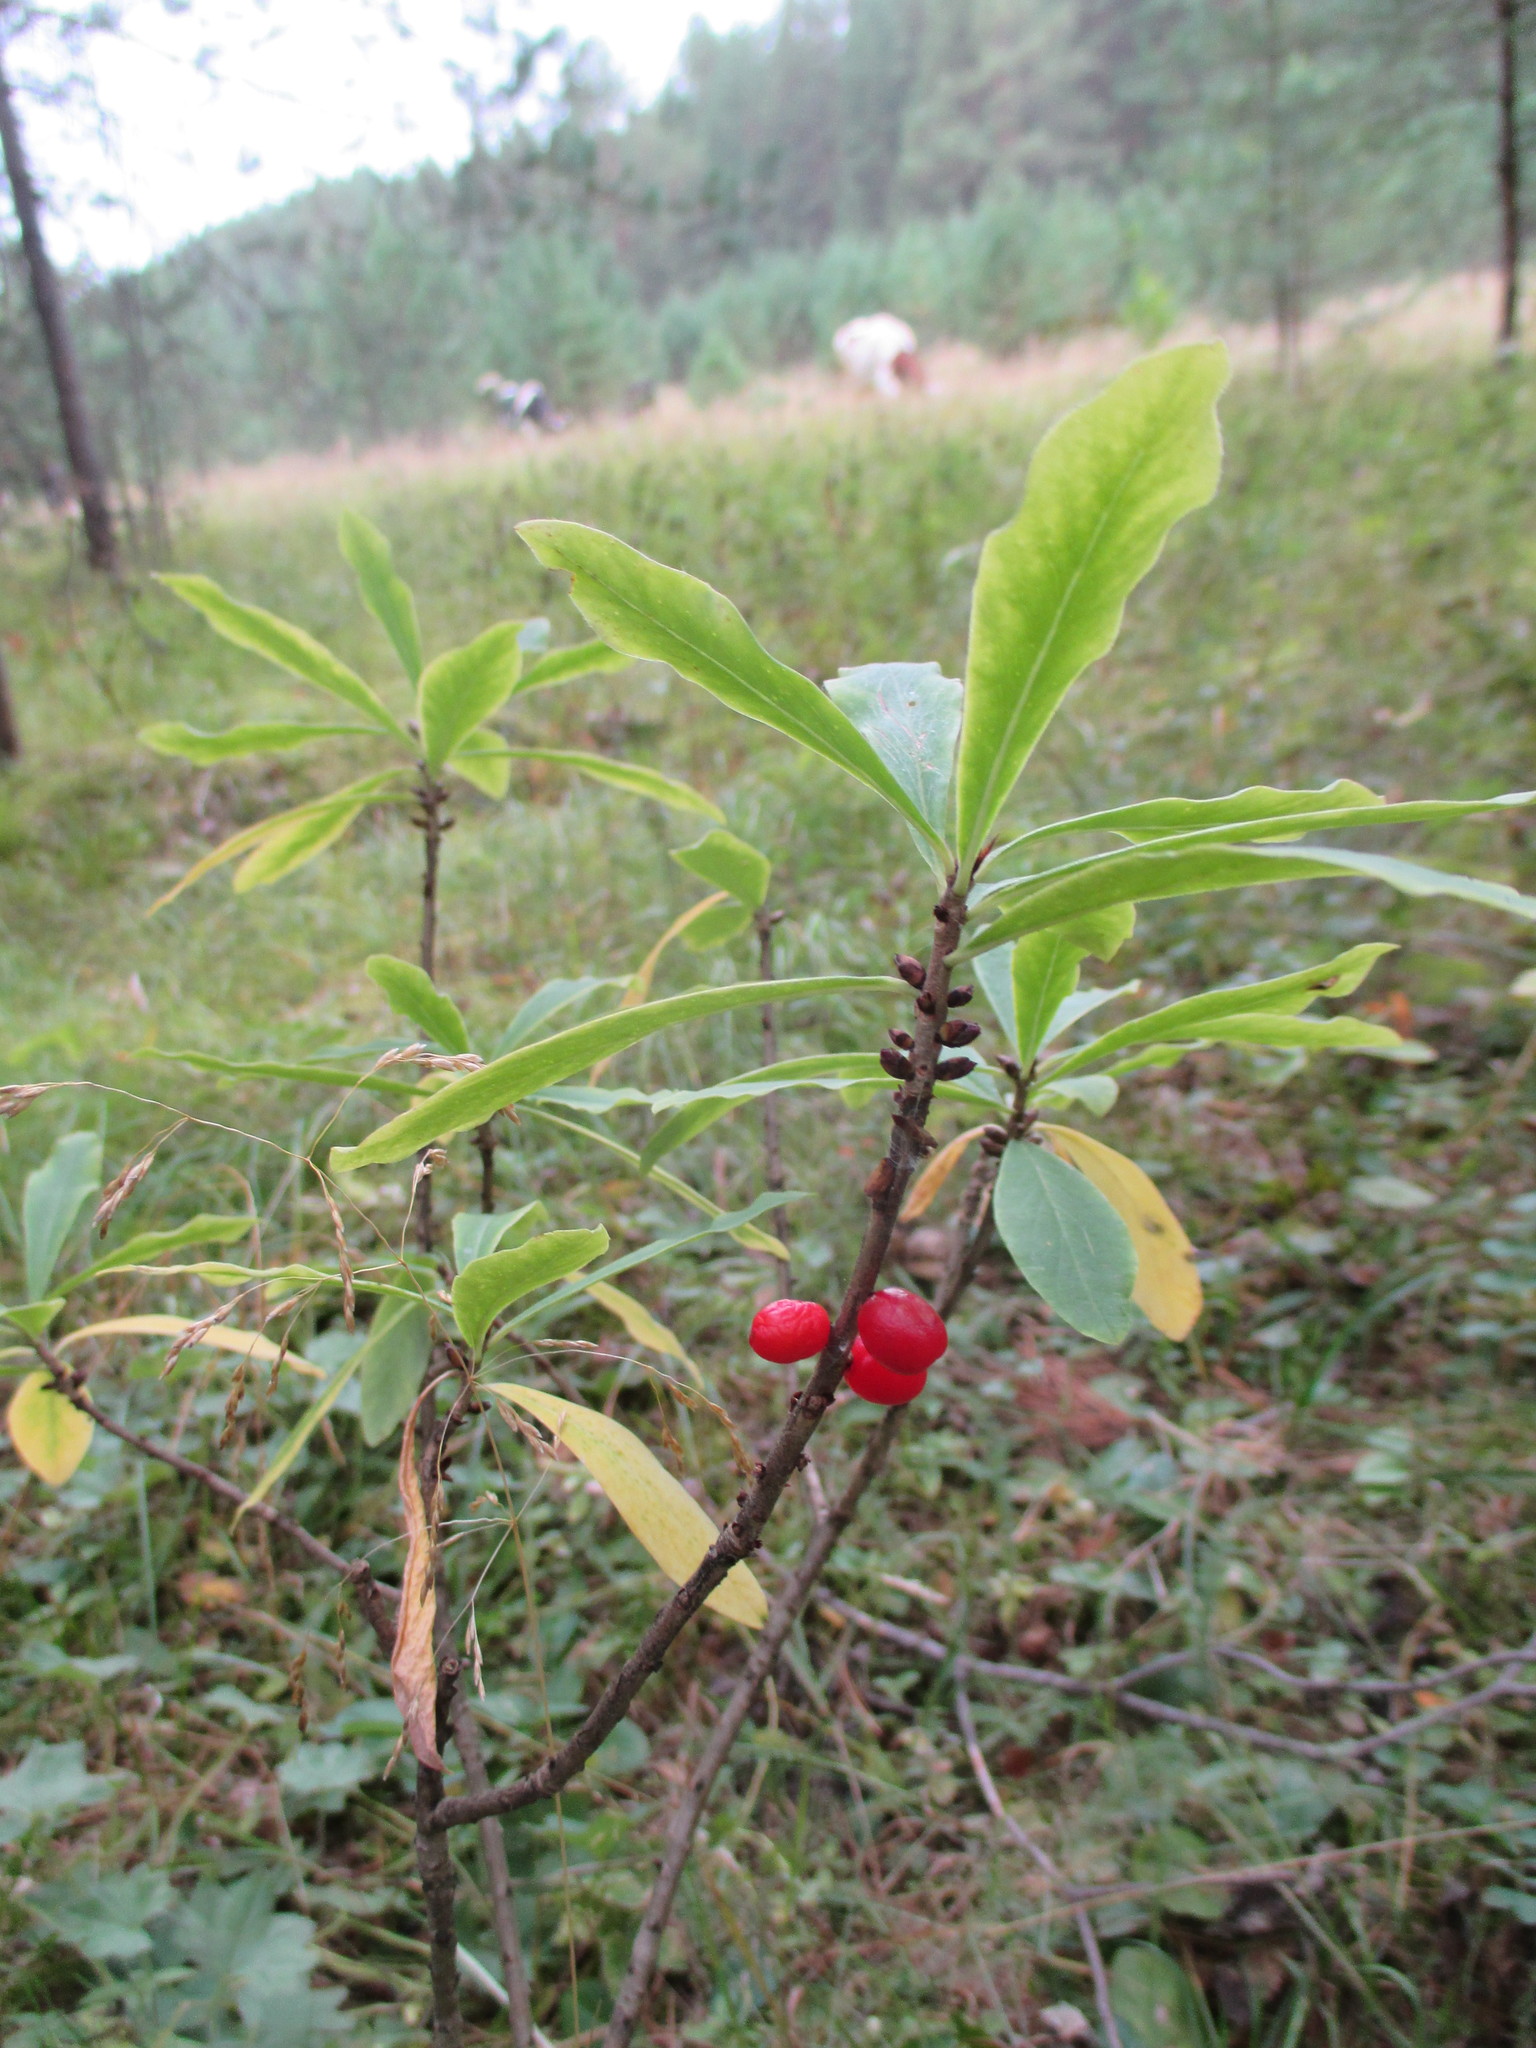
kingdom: Plantae
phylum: Tracheophyta
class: Magnoliopsida
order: Malvales
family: Thymelaeaceae
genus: Daphne
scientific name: Daphne mezereum
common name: Mezereon
